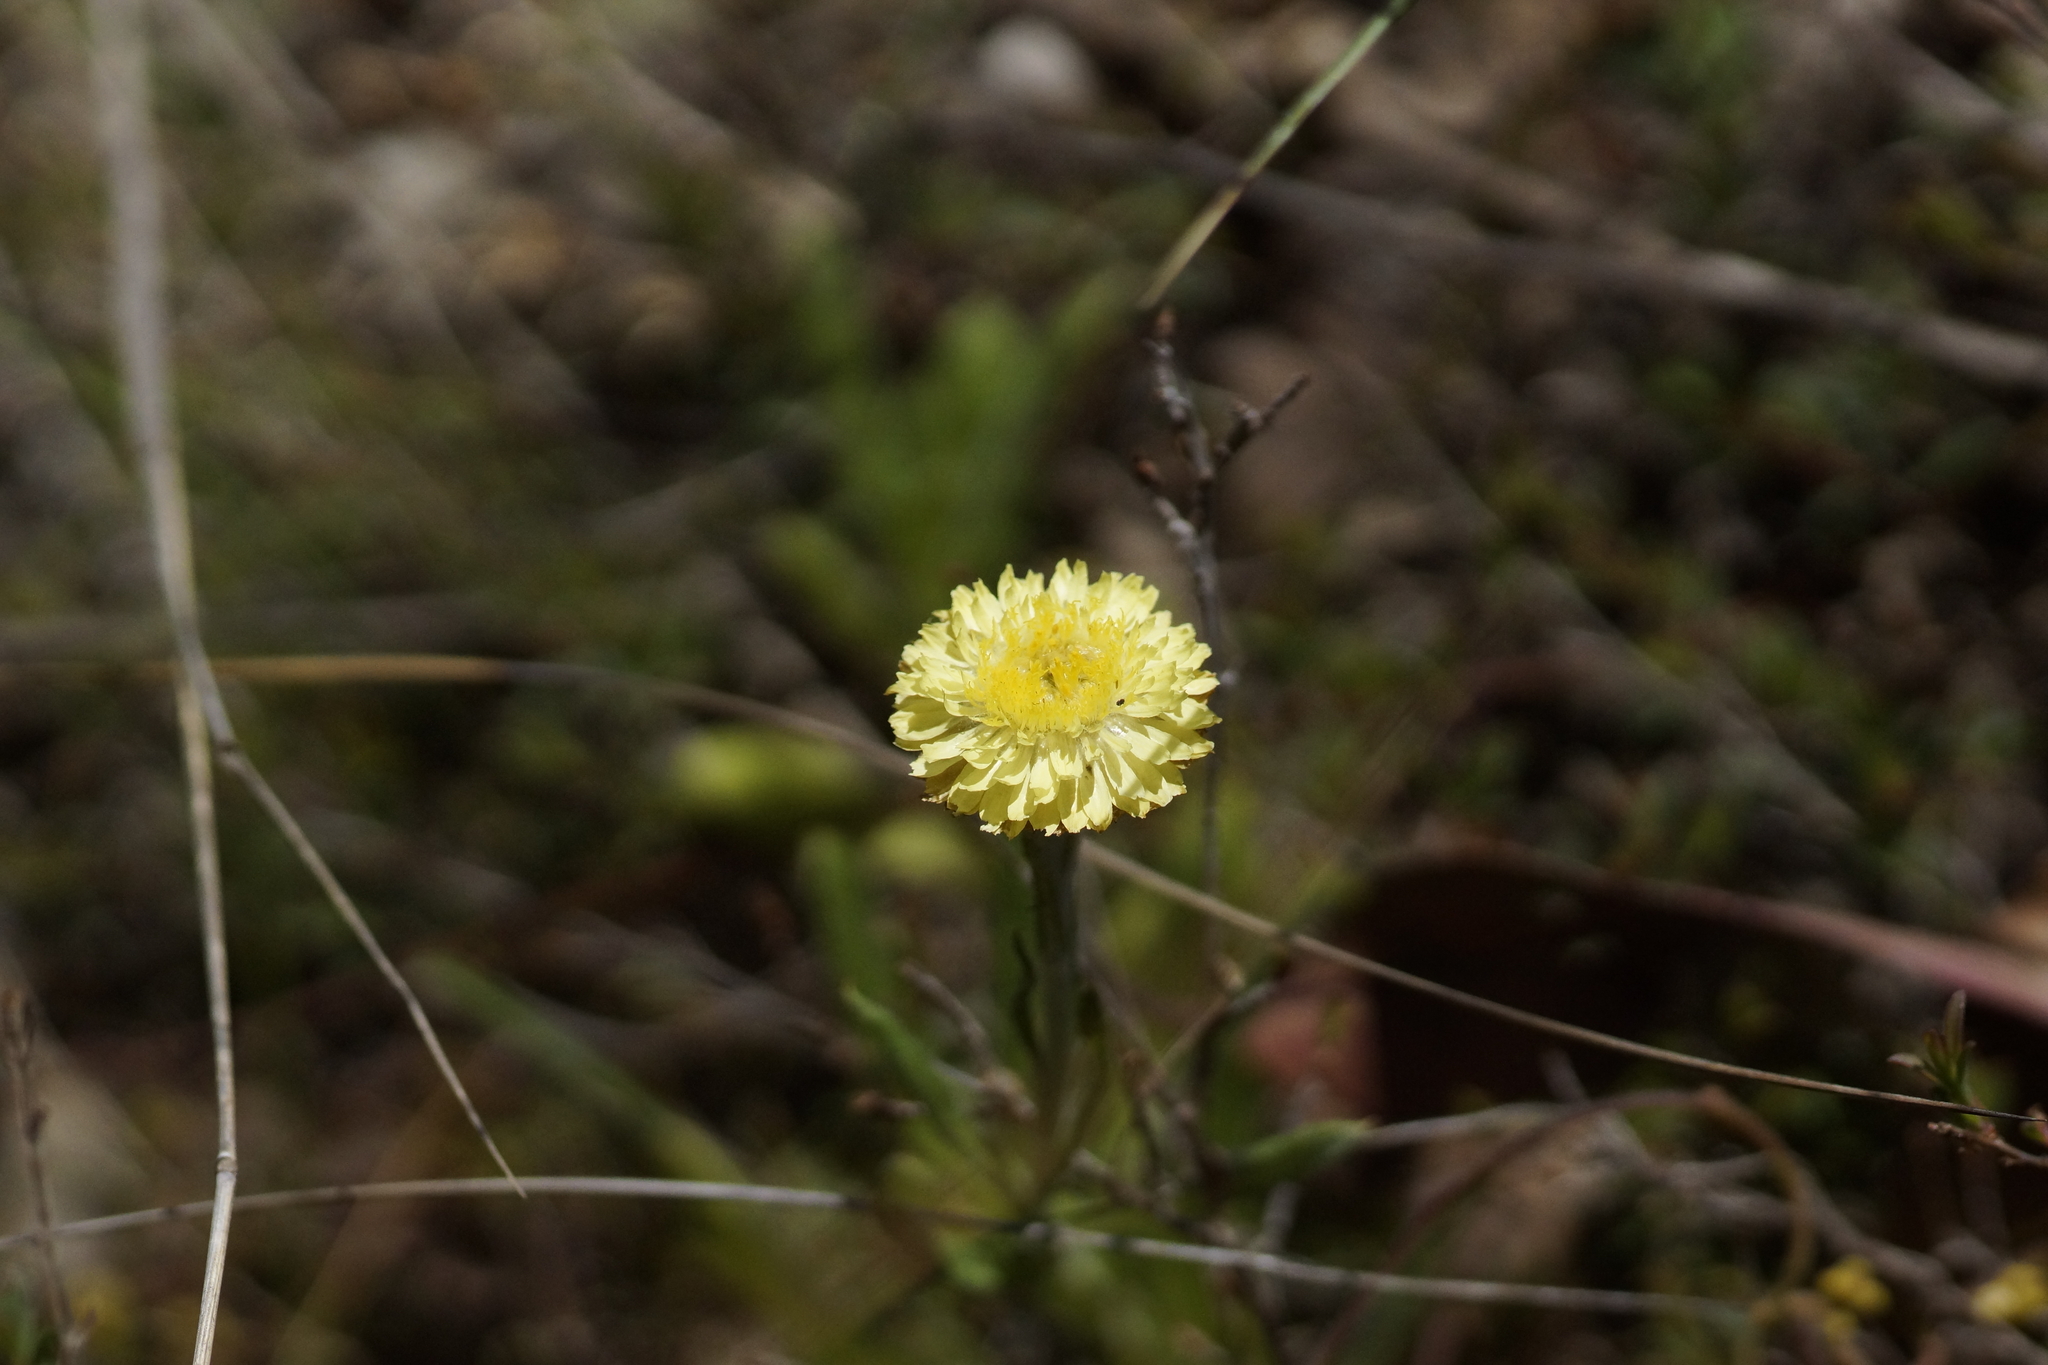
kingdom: Plantae
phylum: Tracheophyta
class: Magnoliopsida
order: Asterales
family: Asteraceae
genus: Coronidium
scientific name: Coronidium scorpioides
